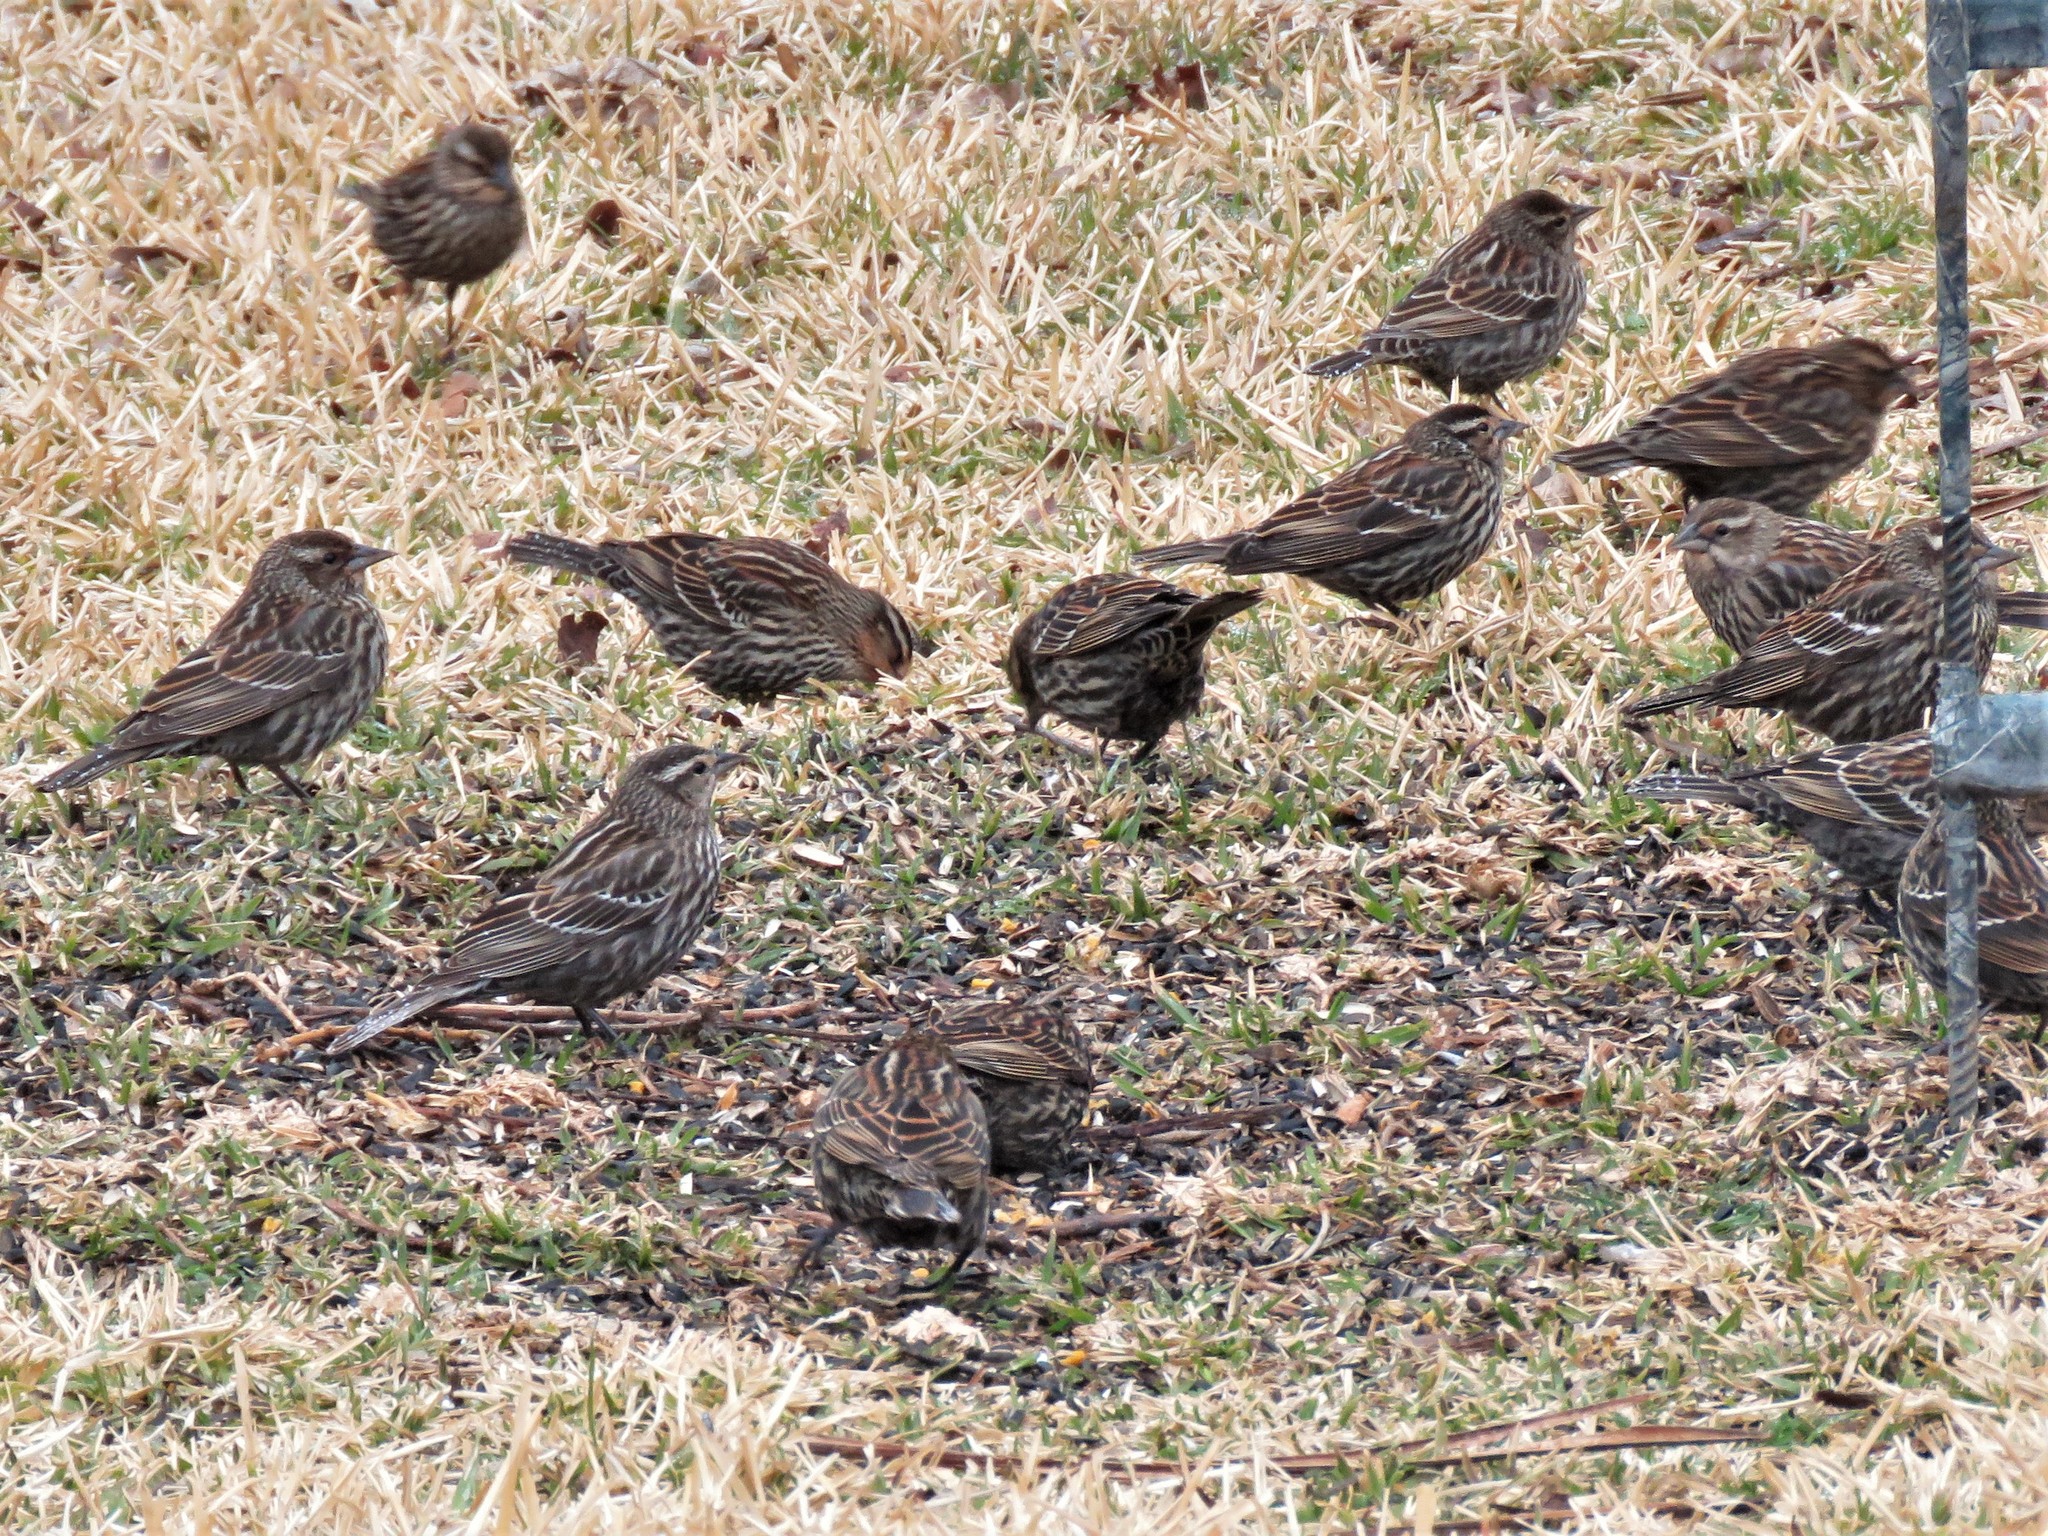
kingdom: Animalia
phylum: Chordata
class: Aves
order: Passeriformes
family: Icteridae
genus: Agelaius
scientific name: Agelaius phoeniceus
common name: Red-winged blackbird
